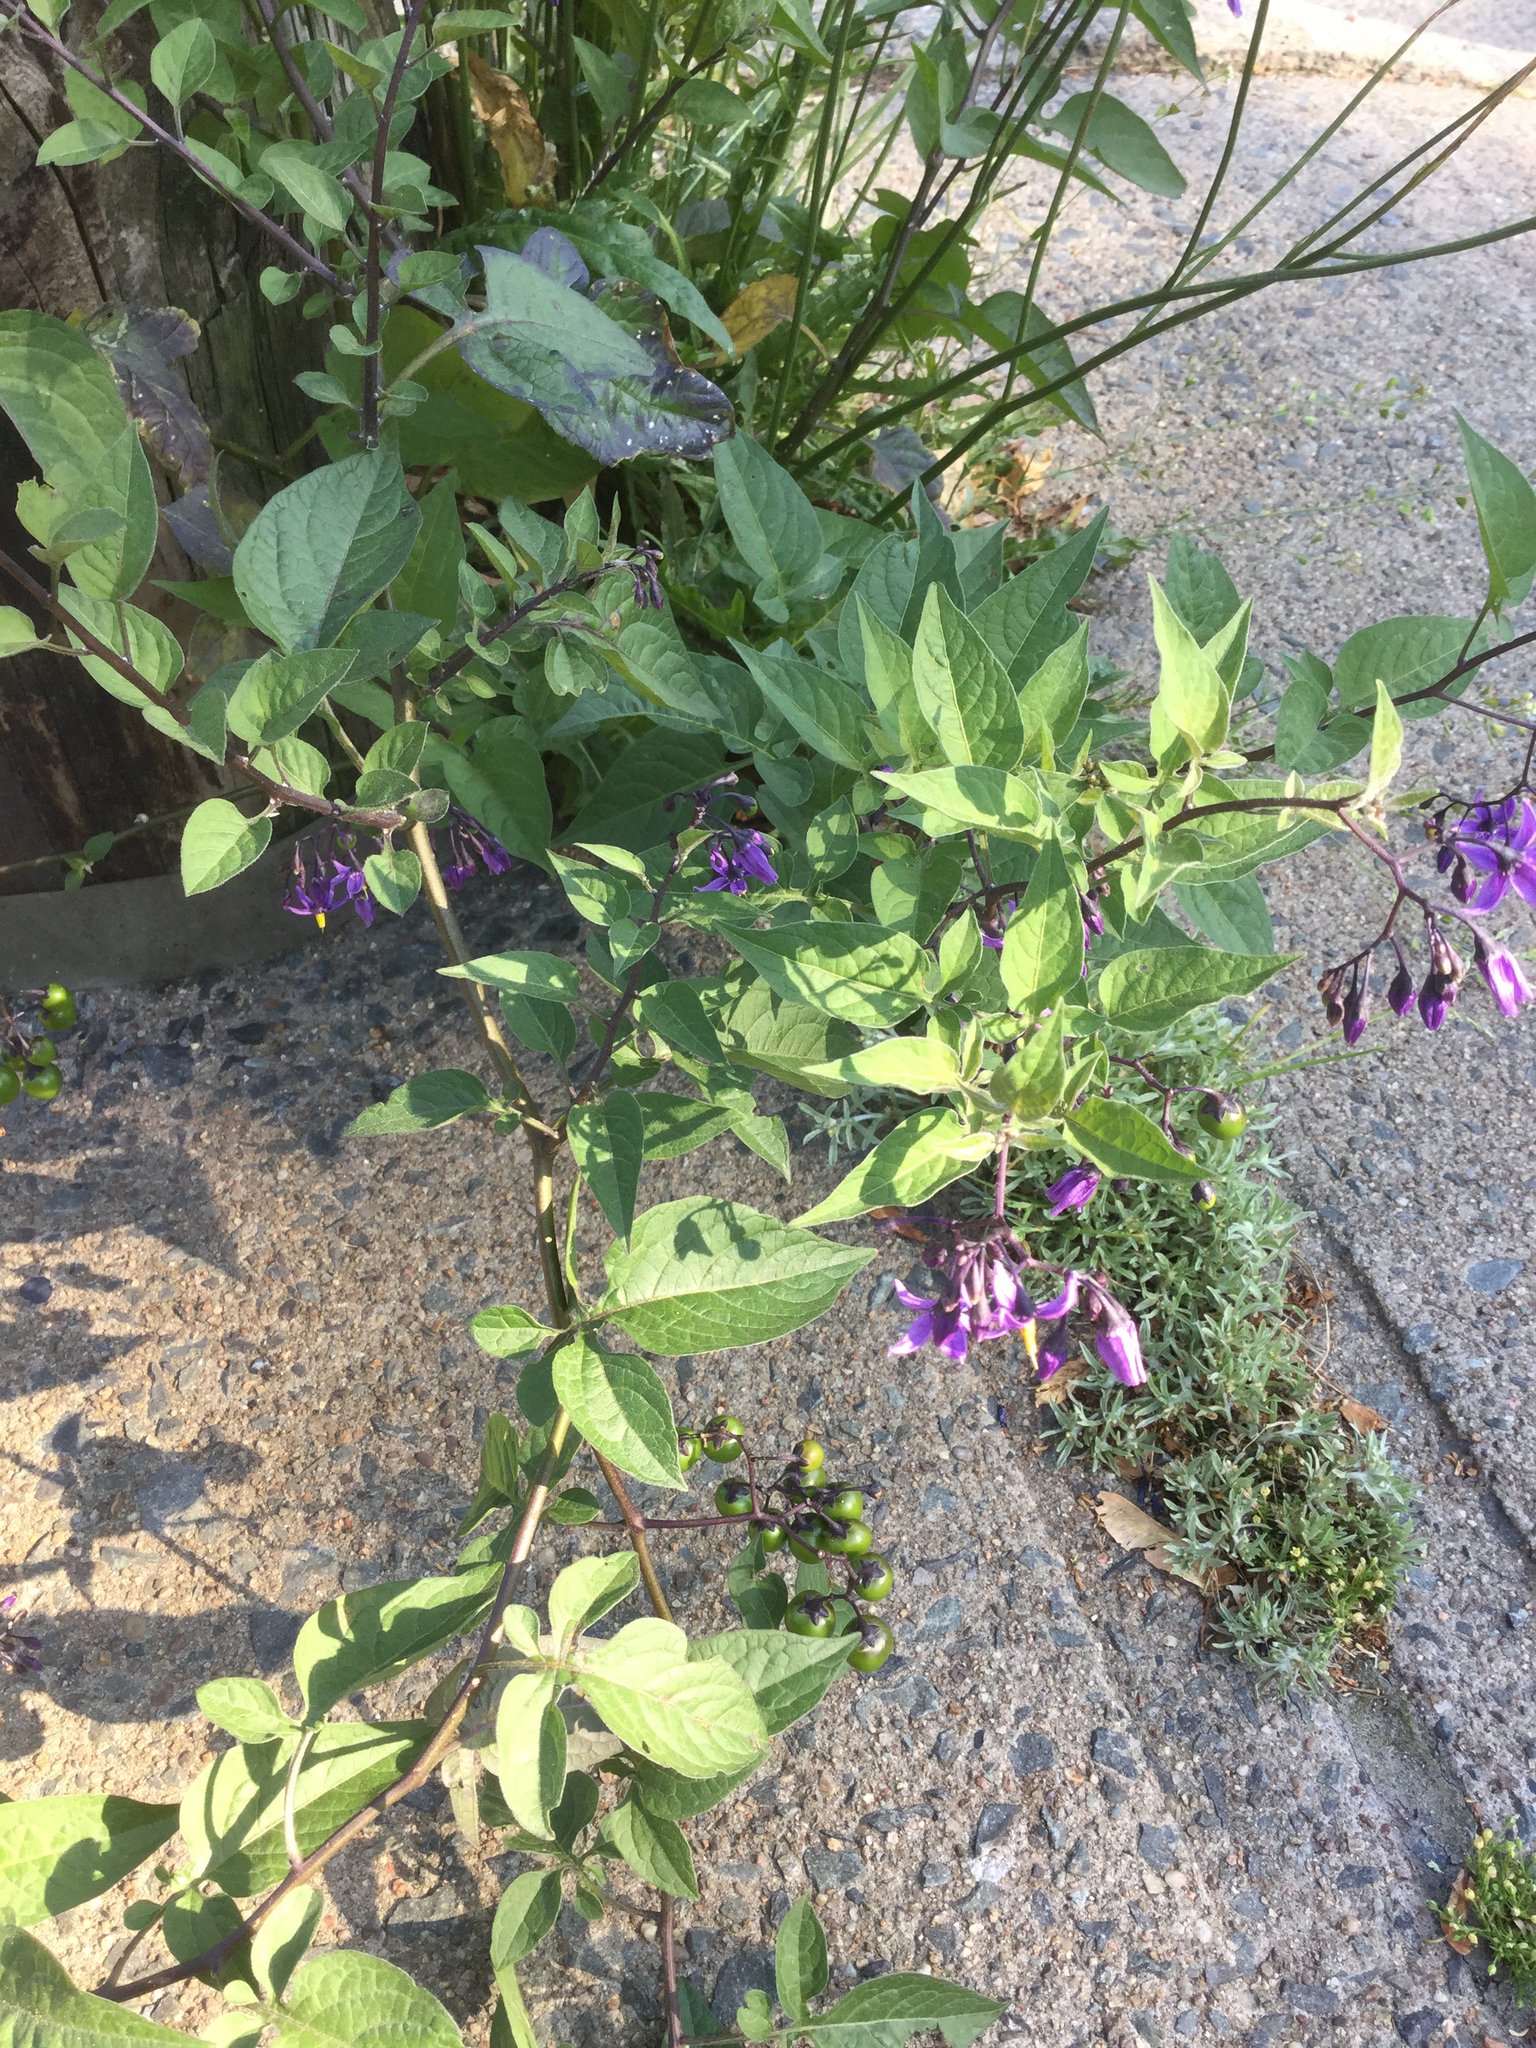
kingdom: Plantae
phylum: Tracheophyta
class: Magnoliopsida
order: Solanales
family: Solanaceae
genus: Solanum
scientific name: Solanum dulcamara
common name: Climbing nightshade
